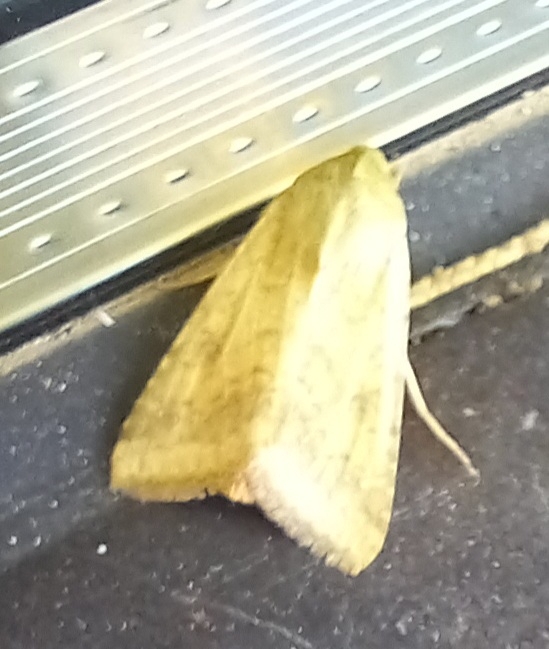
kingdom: Animalia
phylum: Arthropoda
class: Insecta
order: Lepidoptera
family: Noctuidae
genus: Helicoverpa
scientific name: Helicoverpa armigera
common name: Cotton bollworm
